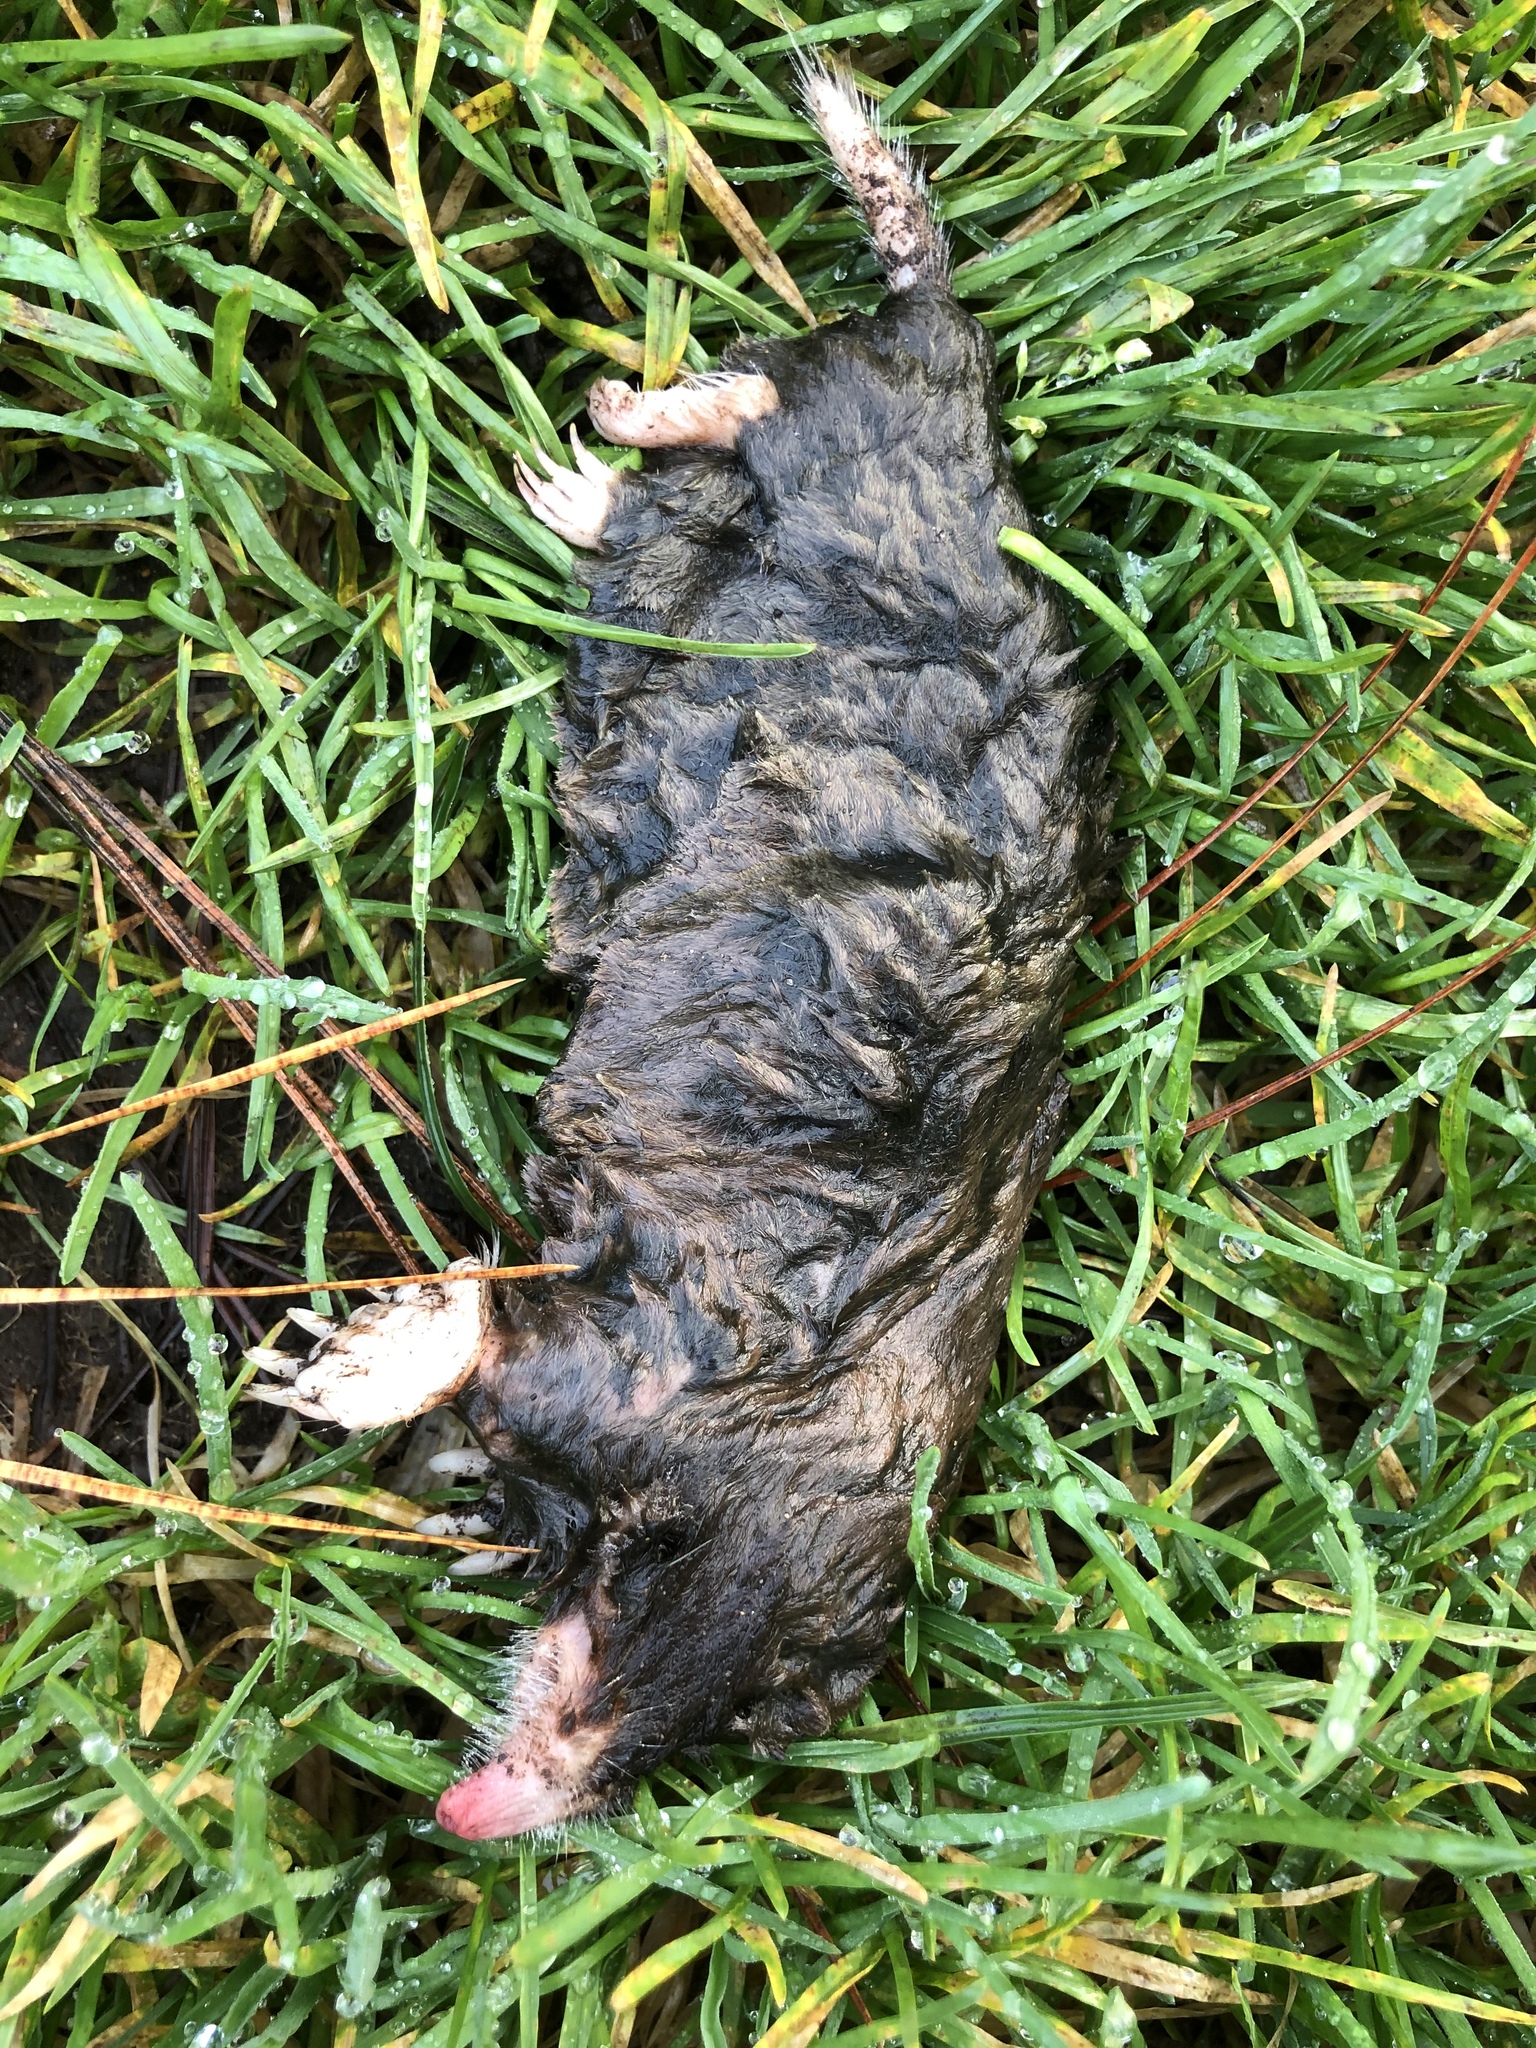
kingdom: Animalia
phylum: Chordata
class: Mammalia
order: Soricomorpha
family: Talpidae
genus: Scapanus
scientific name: Scapanus latimanus
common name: Broad-footed mole
